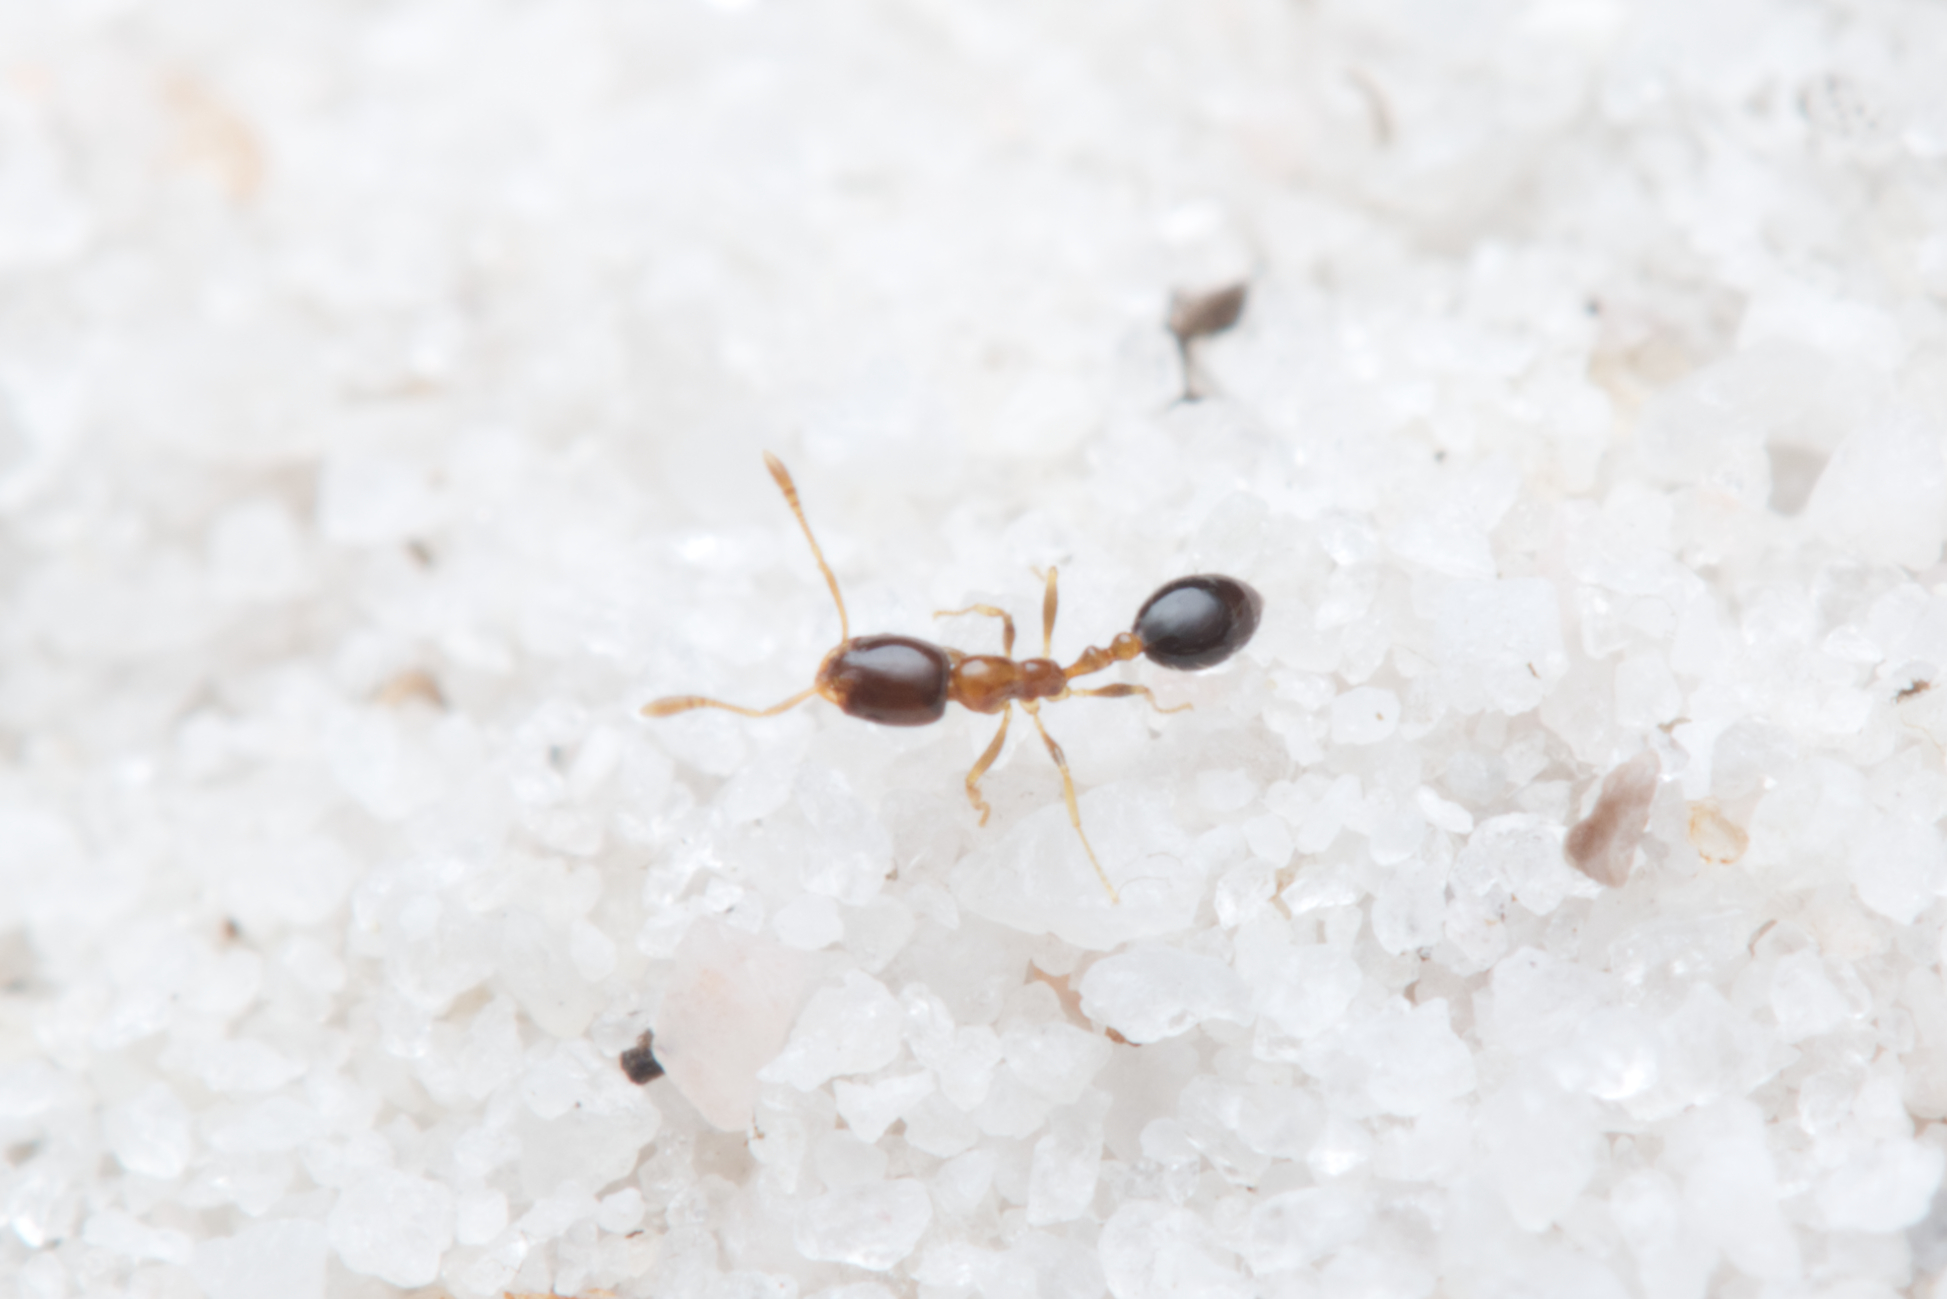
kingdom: Animalia
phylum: Arthropoda
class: Insecta
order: Hymenoptera
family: Formicidae
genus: Monomorium
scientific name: Monomorium floricola
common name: Bicolored trailing ant
